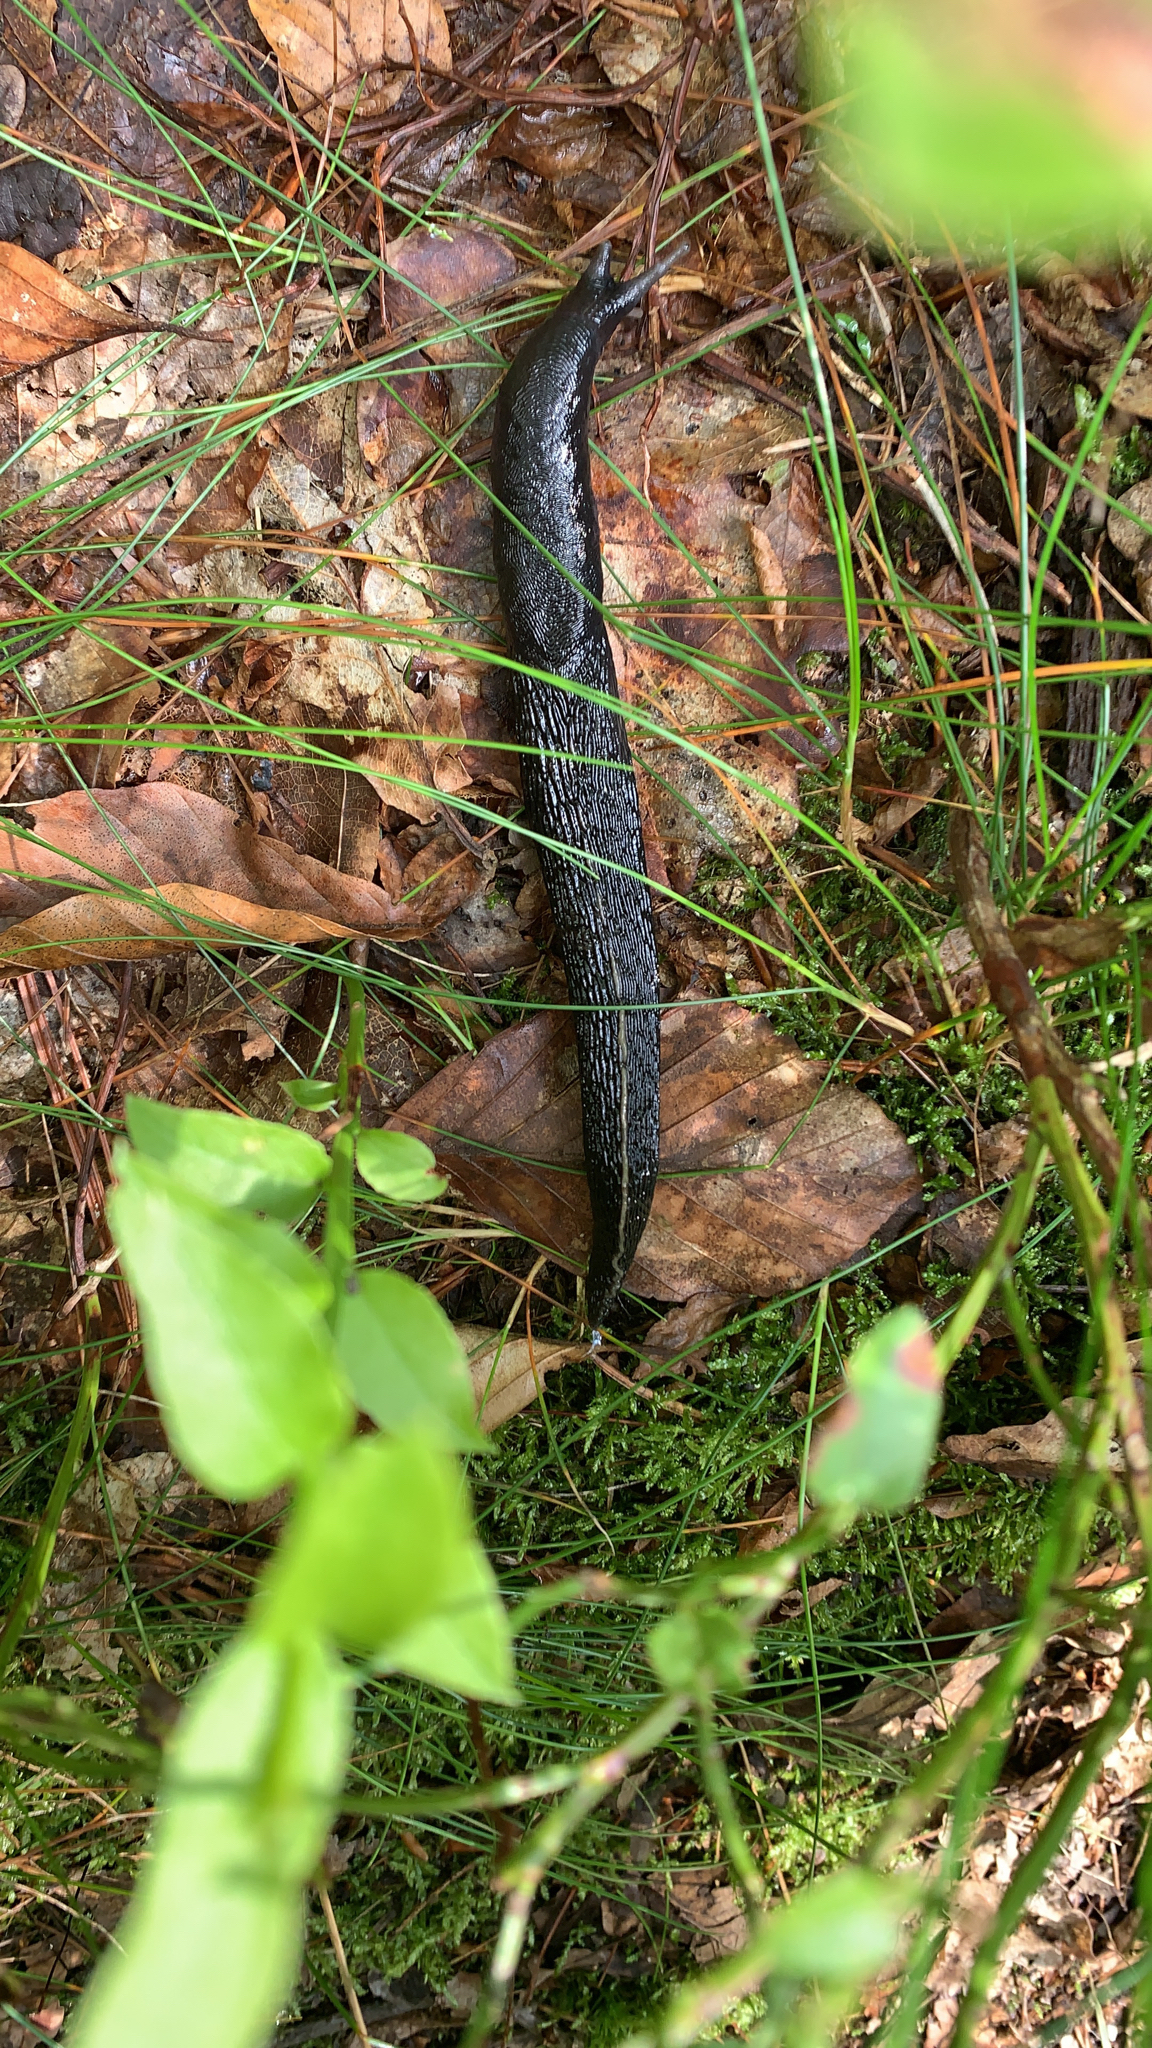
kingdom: Animalia
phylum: Mollusca
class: Gastropoda
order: Stylommatophora
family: Limacidae
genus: Limax
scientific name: Limax cinereoniger
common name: Ash-black slug
